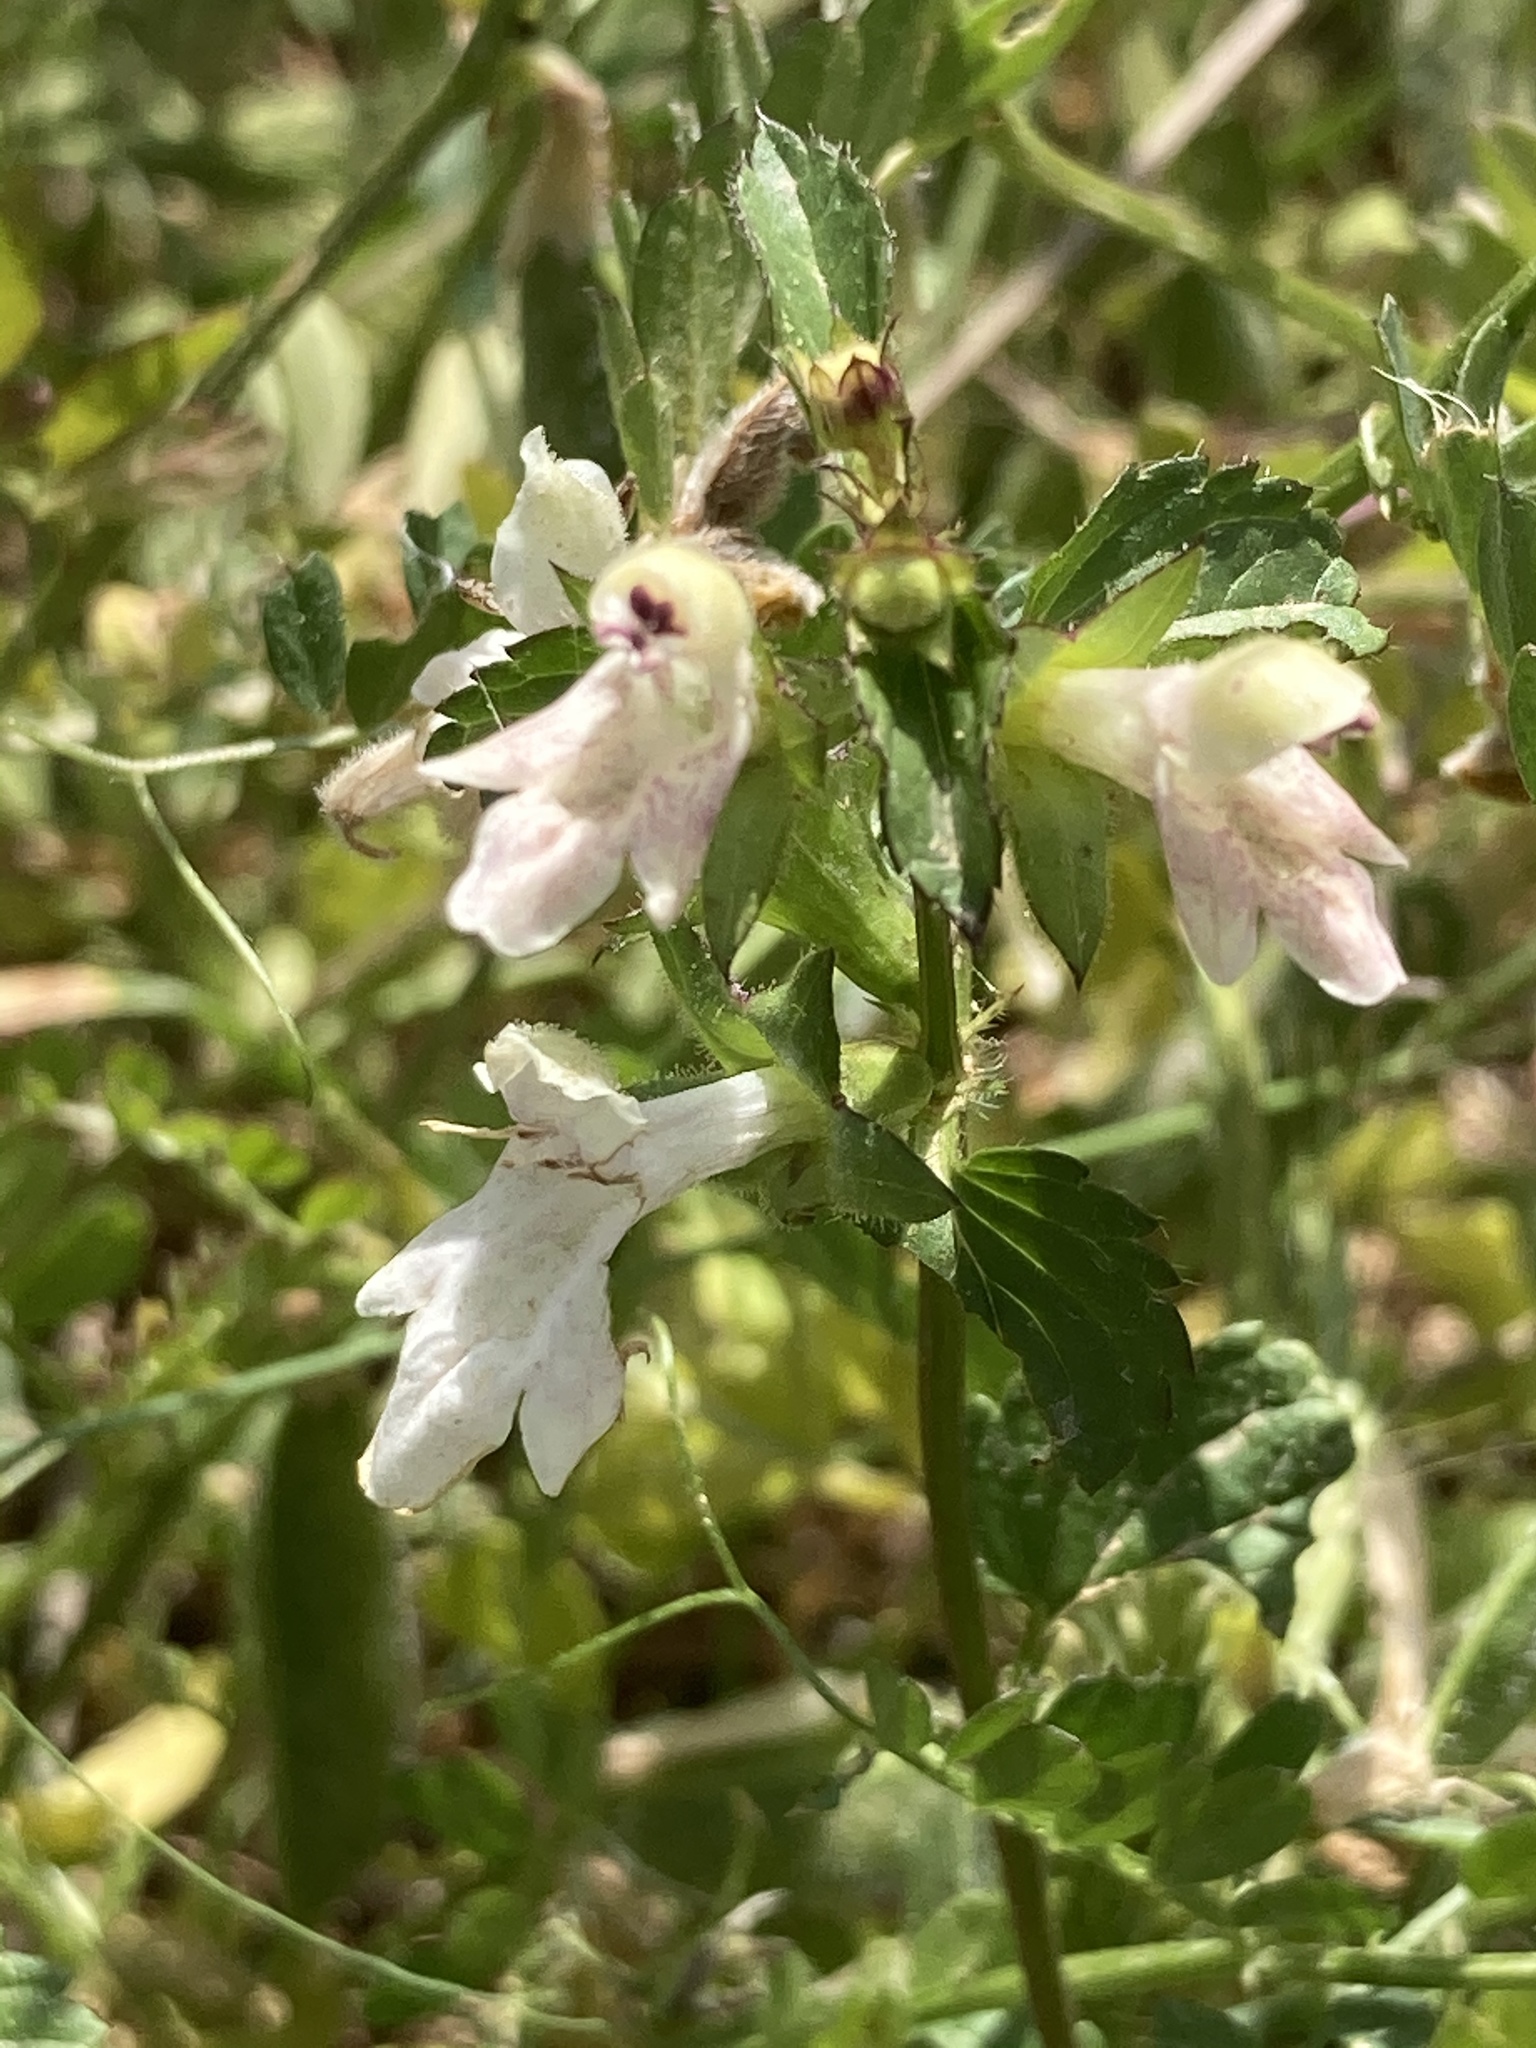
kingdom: Plantae
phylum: Tracheophyta
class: Magnoliopsida
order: Lamiales
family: Lamiaceae
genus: Prasium
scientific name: Prasium majus
